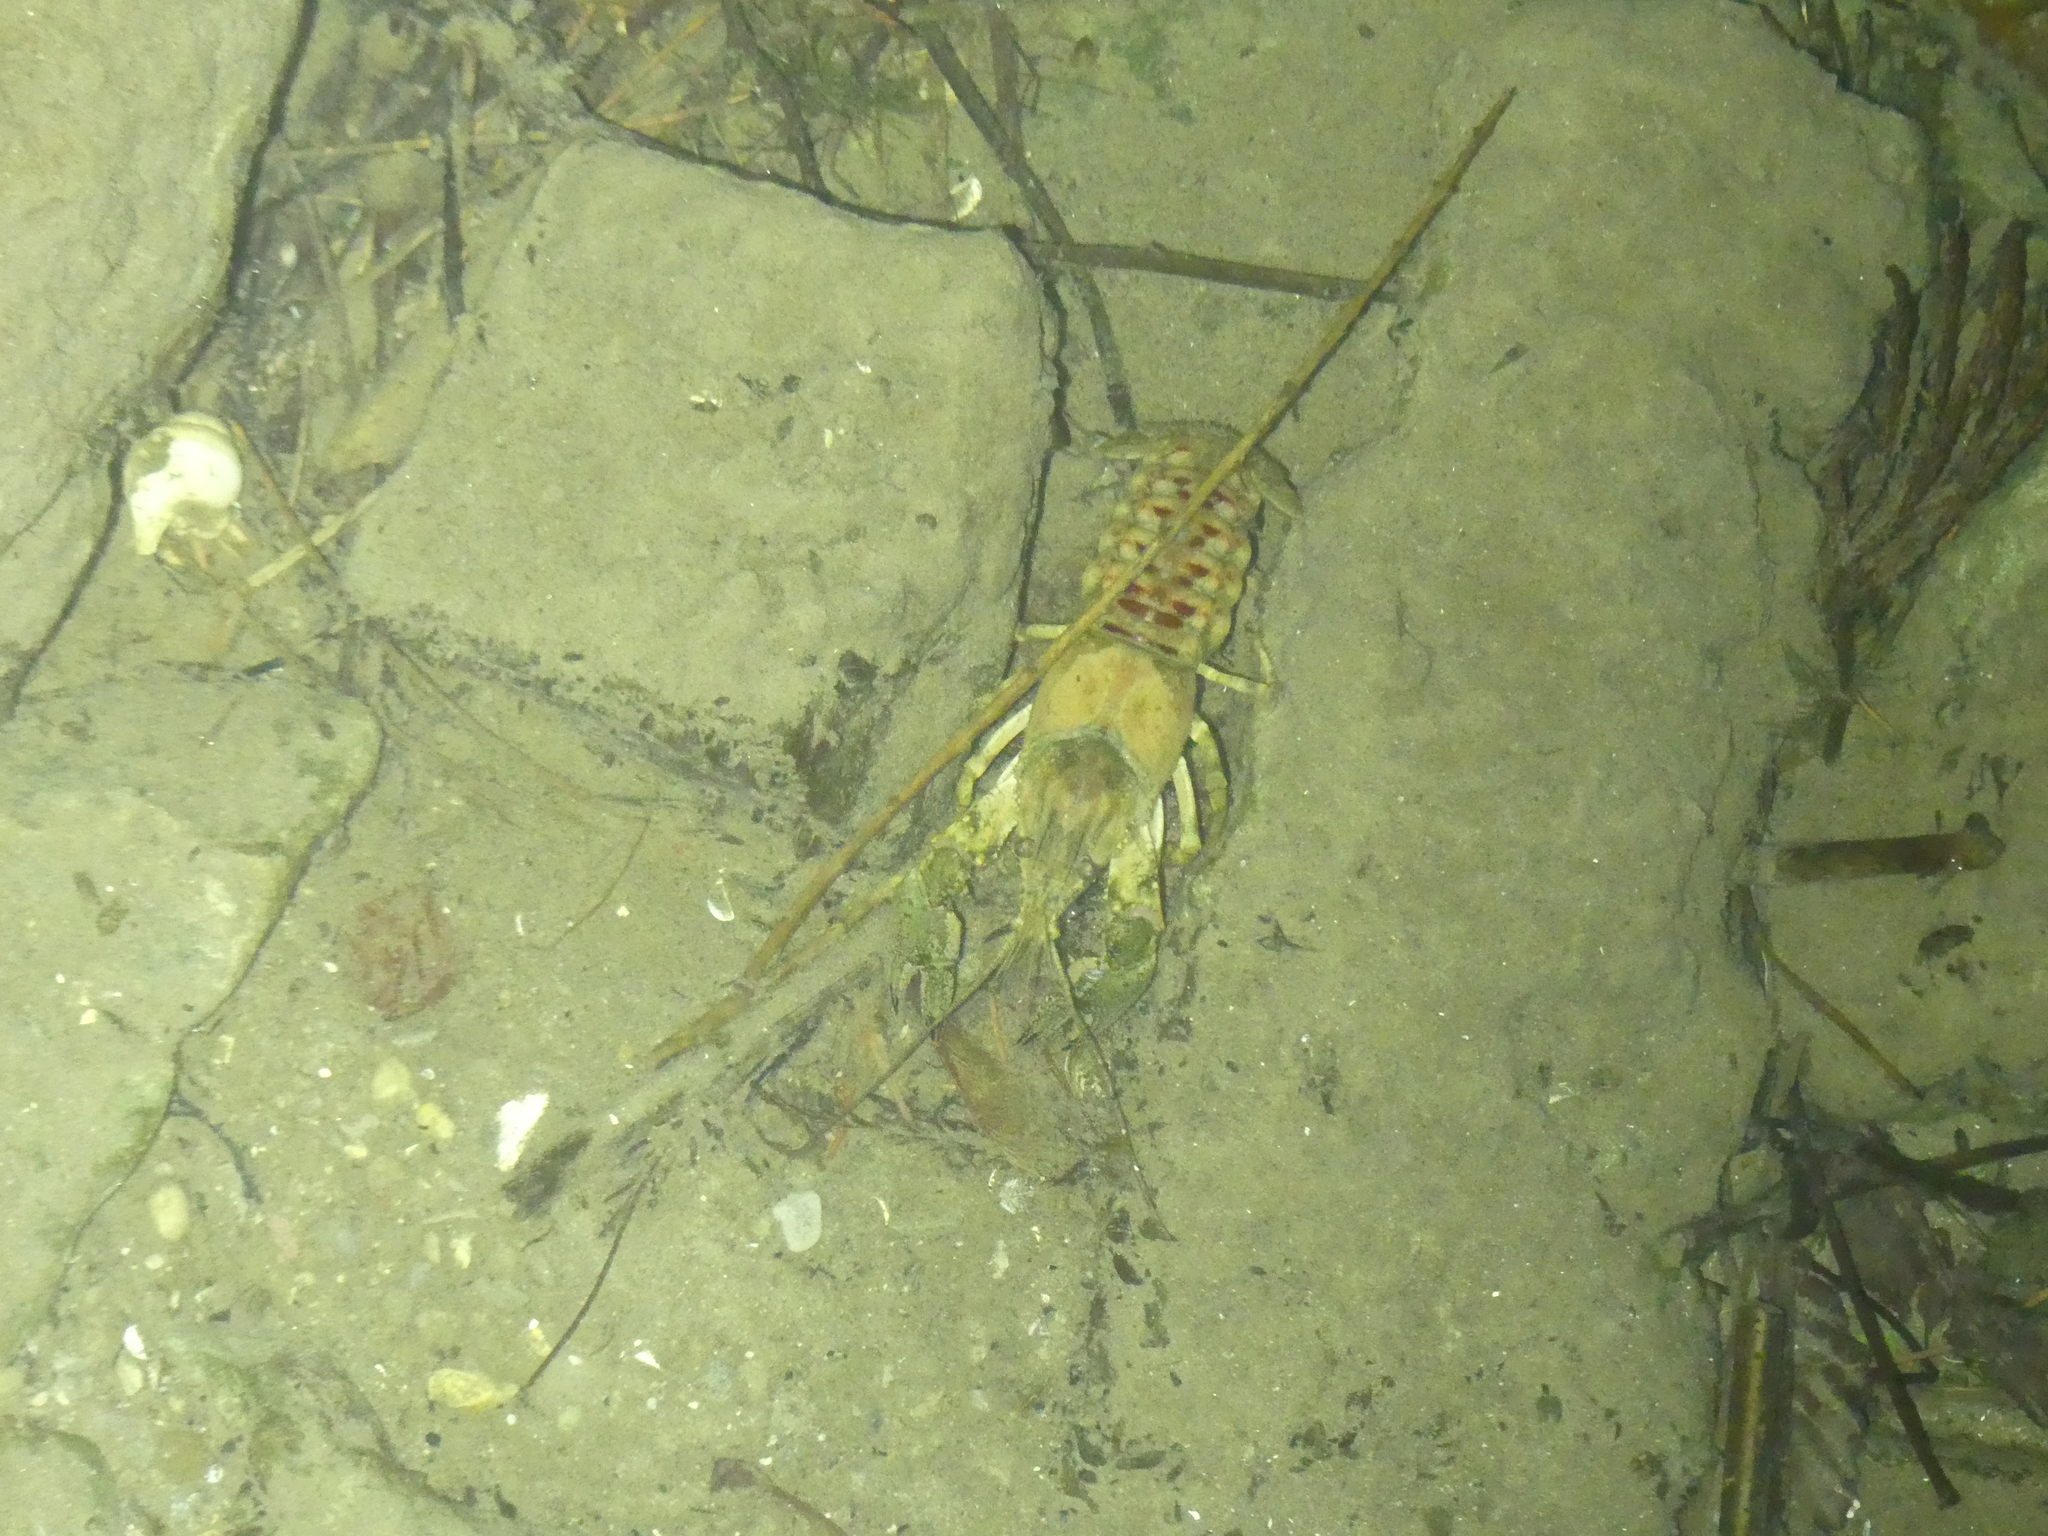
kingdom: Animalia
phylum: Arthropoda
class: Malacostraca
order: Decapoda
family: Cambaridae
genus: Faxonius
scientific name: Faxonius limosus
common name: American crayfish
